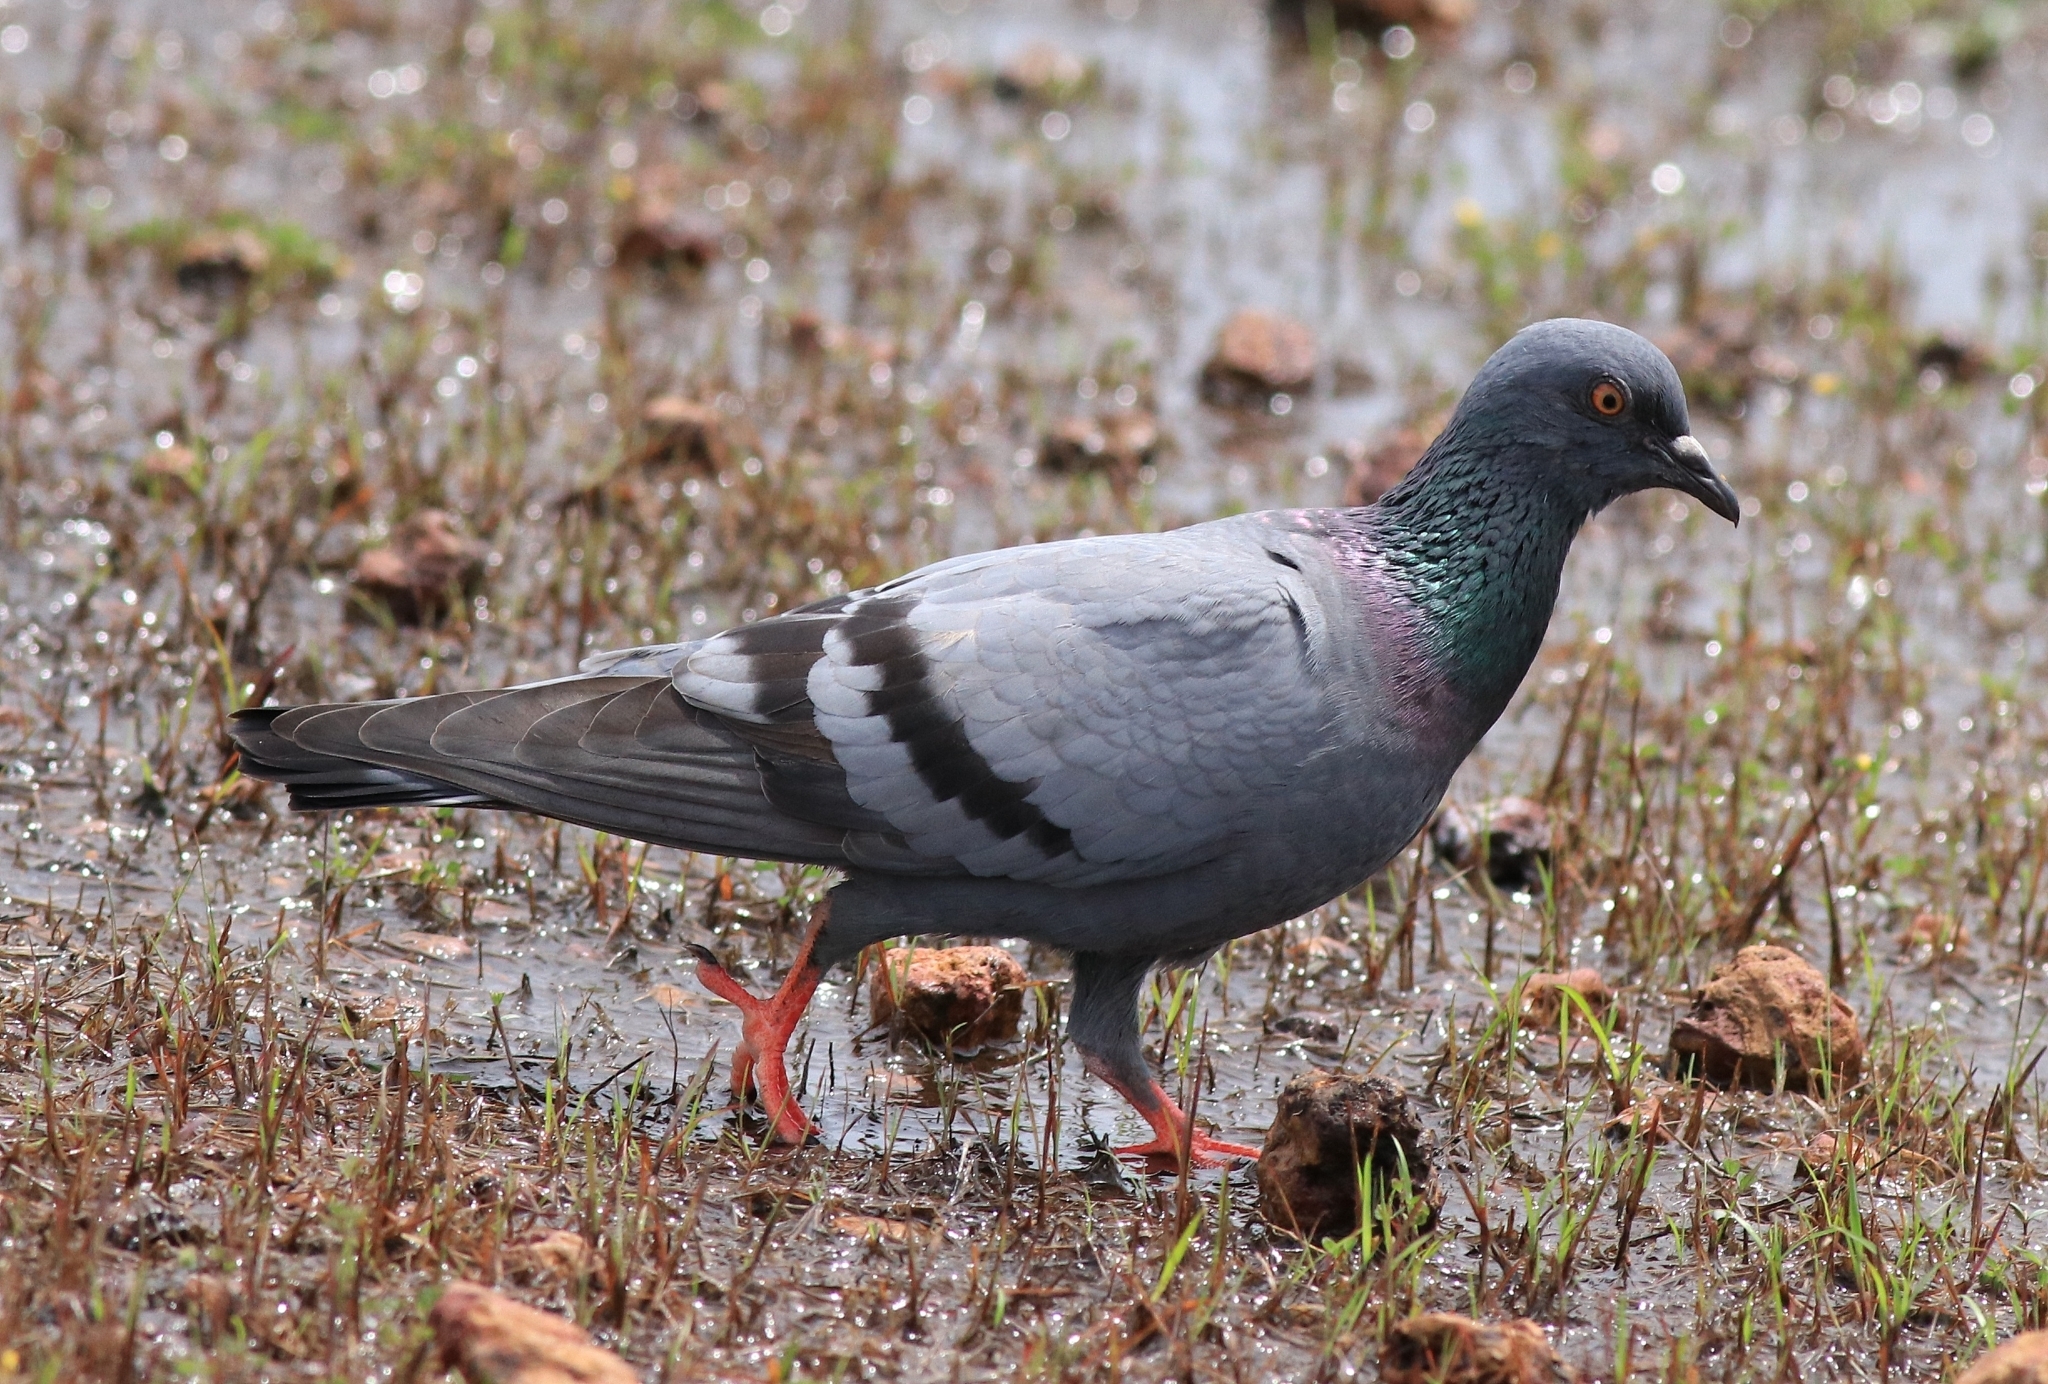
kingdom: Animalia
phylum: Chordata
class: Aves
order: Columbiformes
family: Columbidae
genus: Columba
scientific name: Columba livia
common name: Rock pigeon
